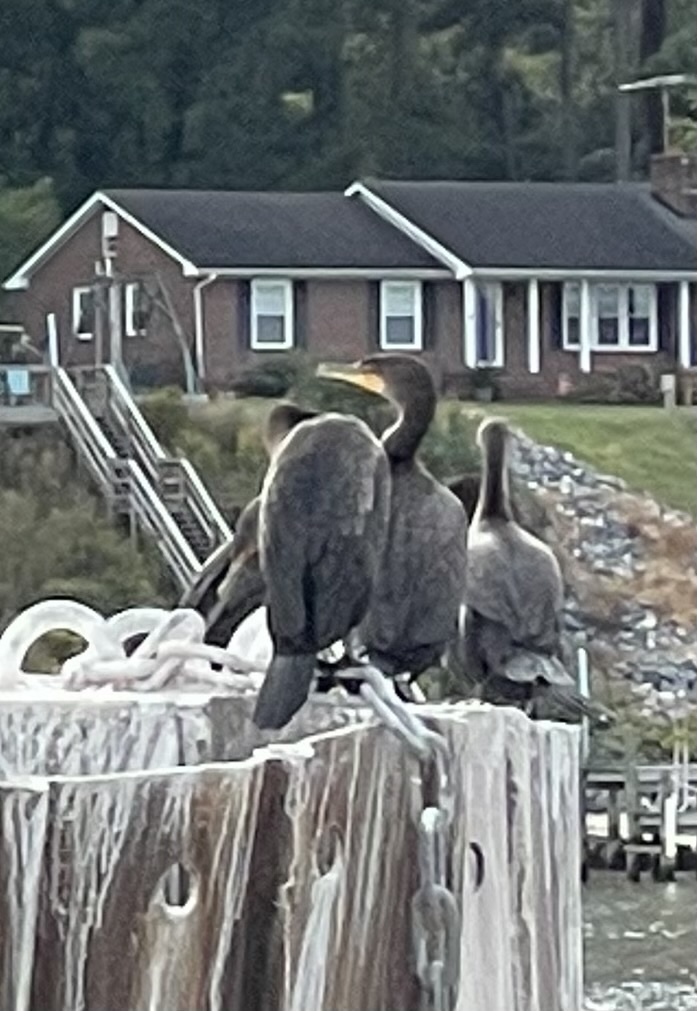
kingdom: Animalia
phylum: Chordata
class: Aves
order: Suliformes
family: Phalacrocoracidae
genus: Phalacrocorax
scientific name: Phalacrocorax auritus
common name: Double-crested cormorant
